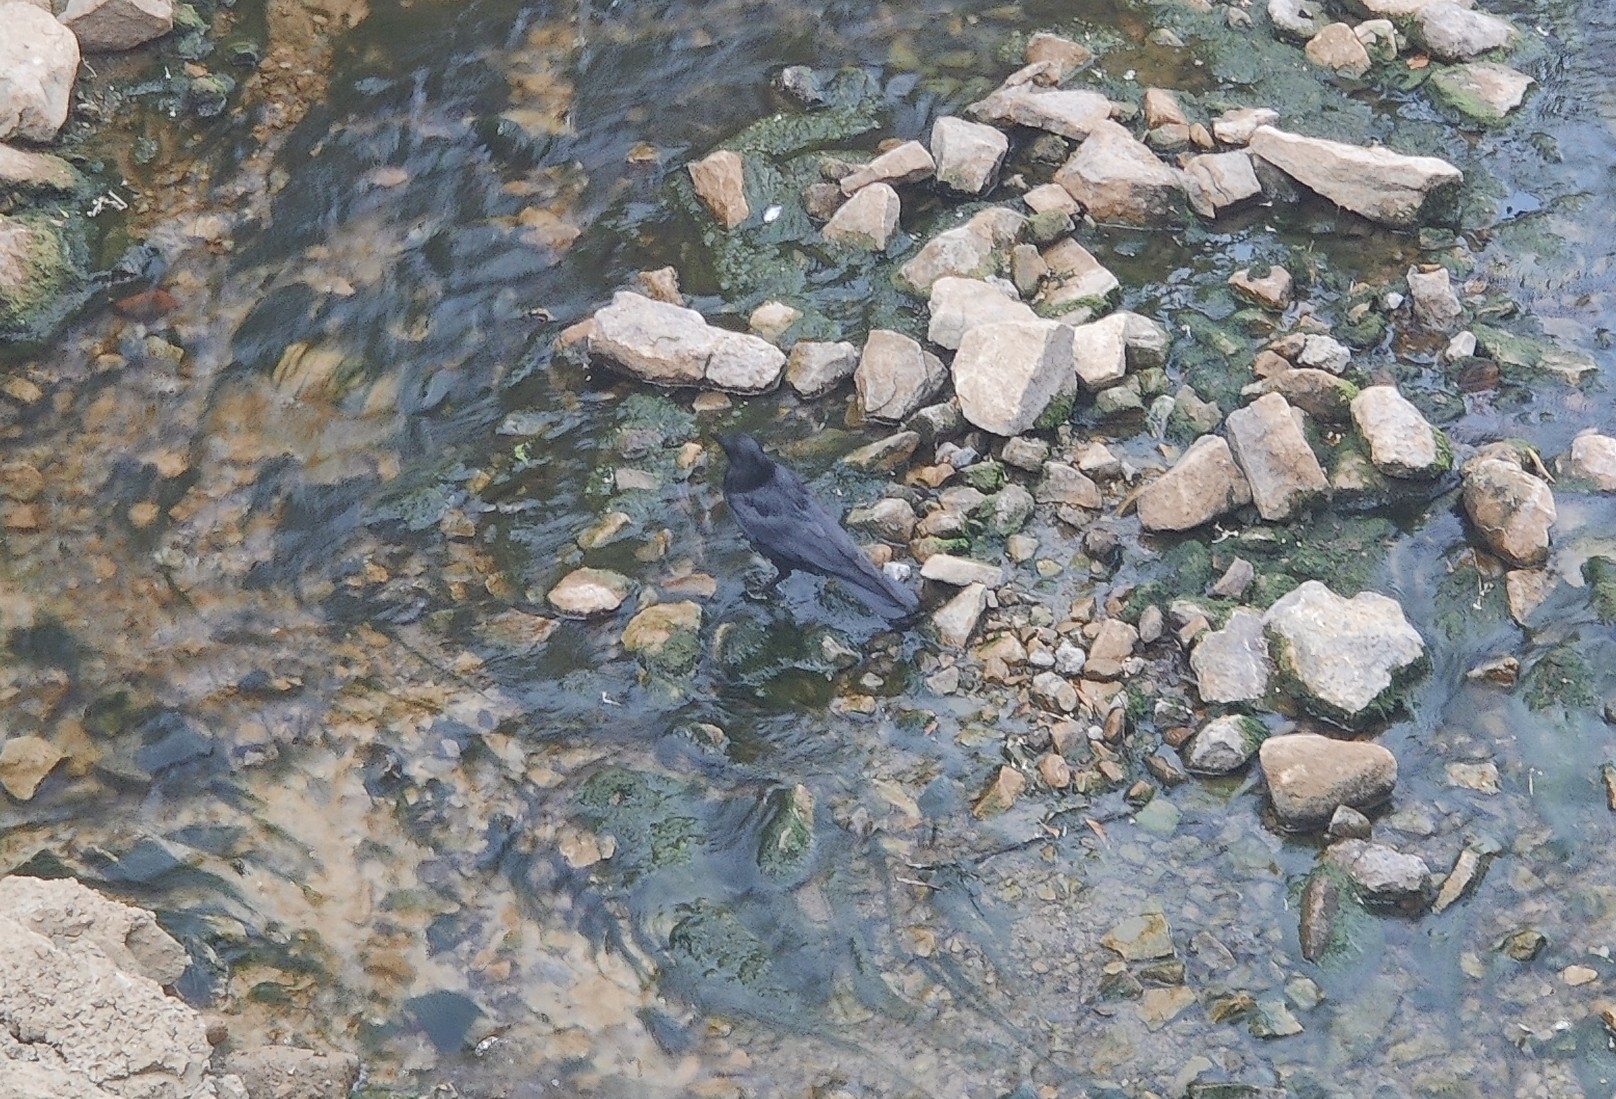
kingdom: Animalia
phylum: Chordata
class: Aves
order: Passeriformes
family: Corvidae
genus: Corvus
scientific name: Corvus corone
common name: Carrion crow
